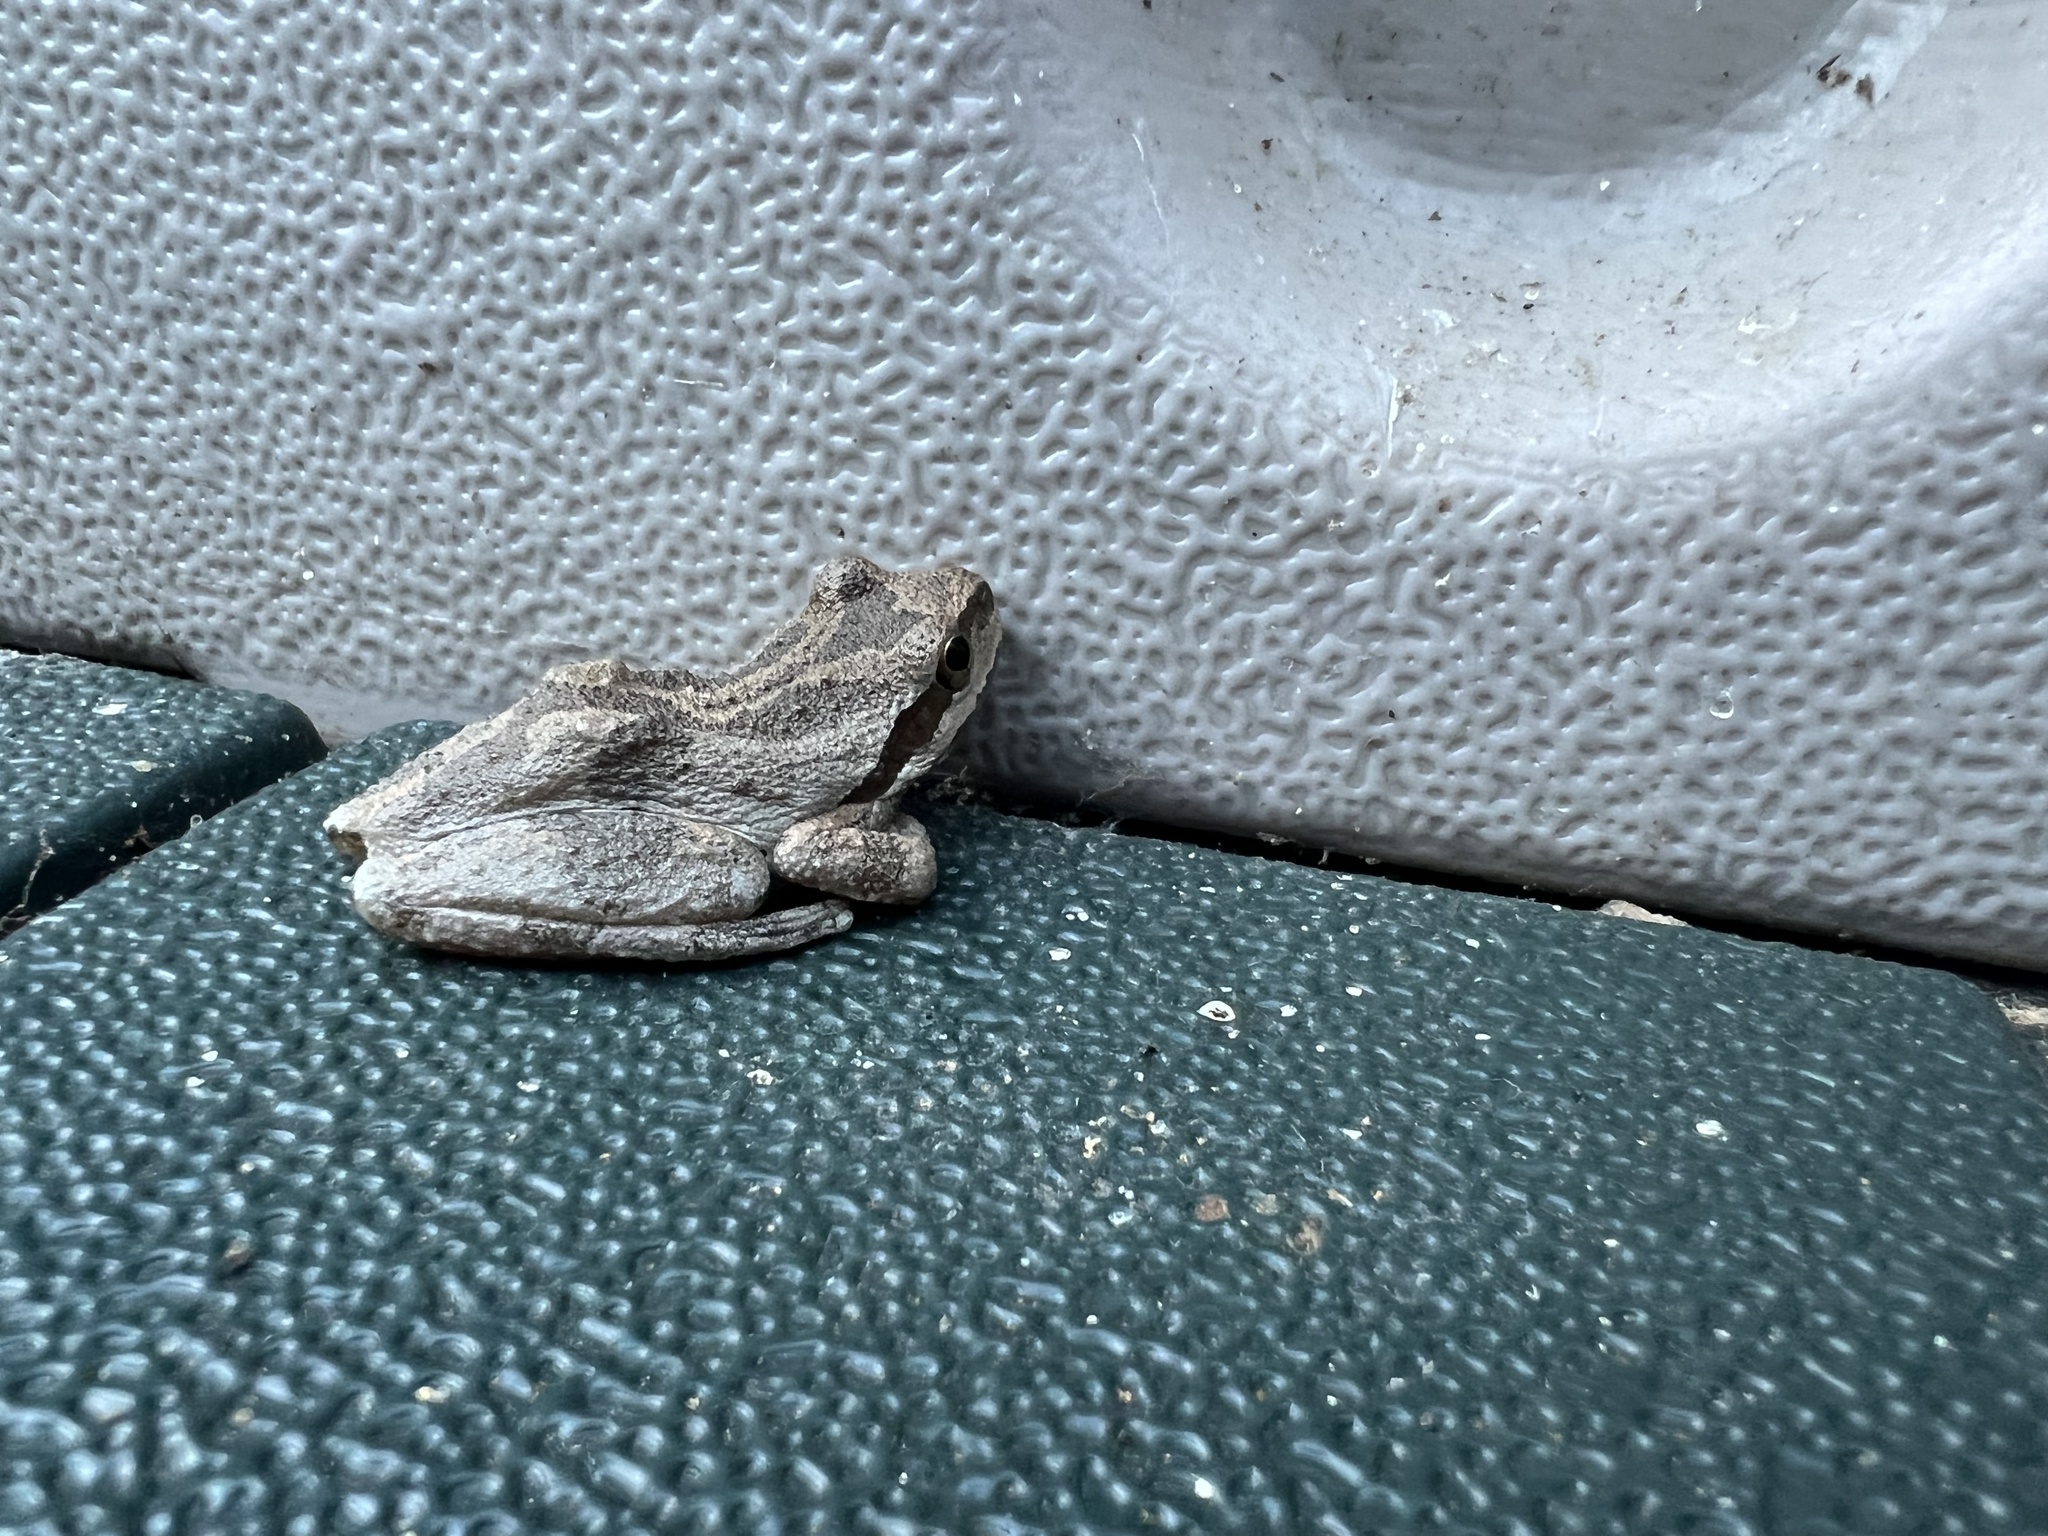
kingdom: Animalia
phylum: Chordata
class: Amphibia
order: Anura
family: Hylidae
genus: Pseudacris
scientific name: Pseudacris regilla
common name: Pacific chorus frog
